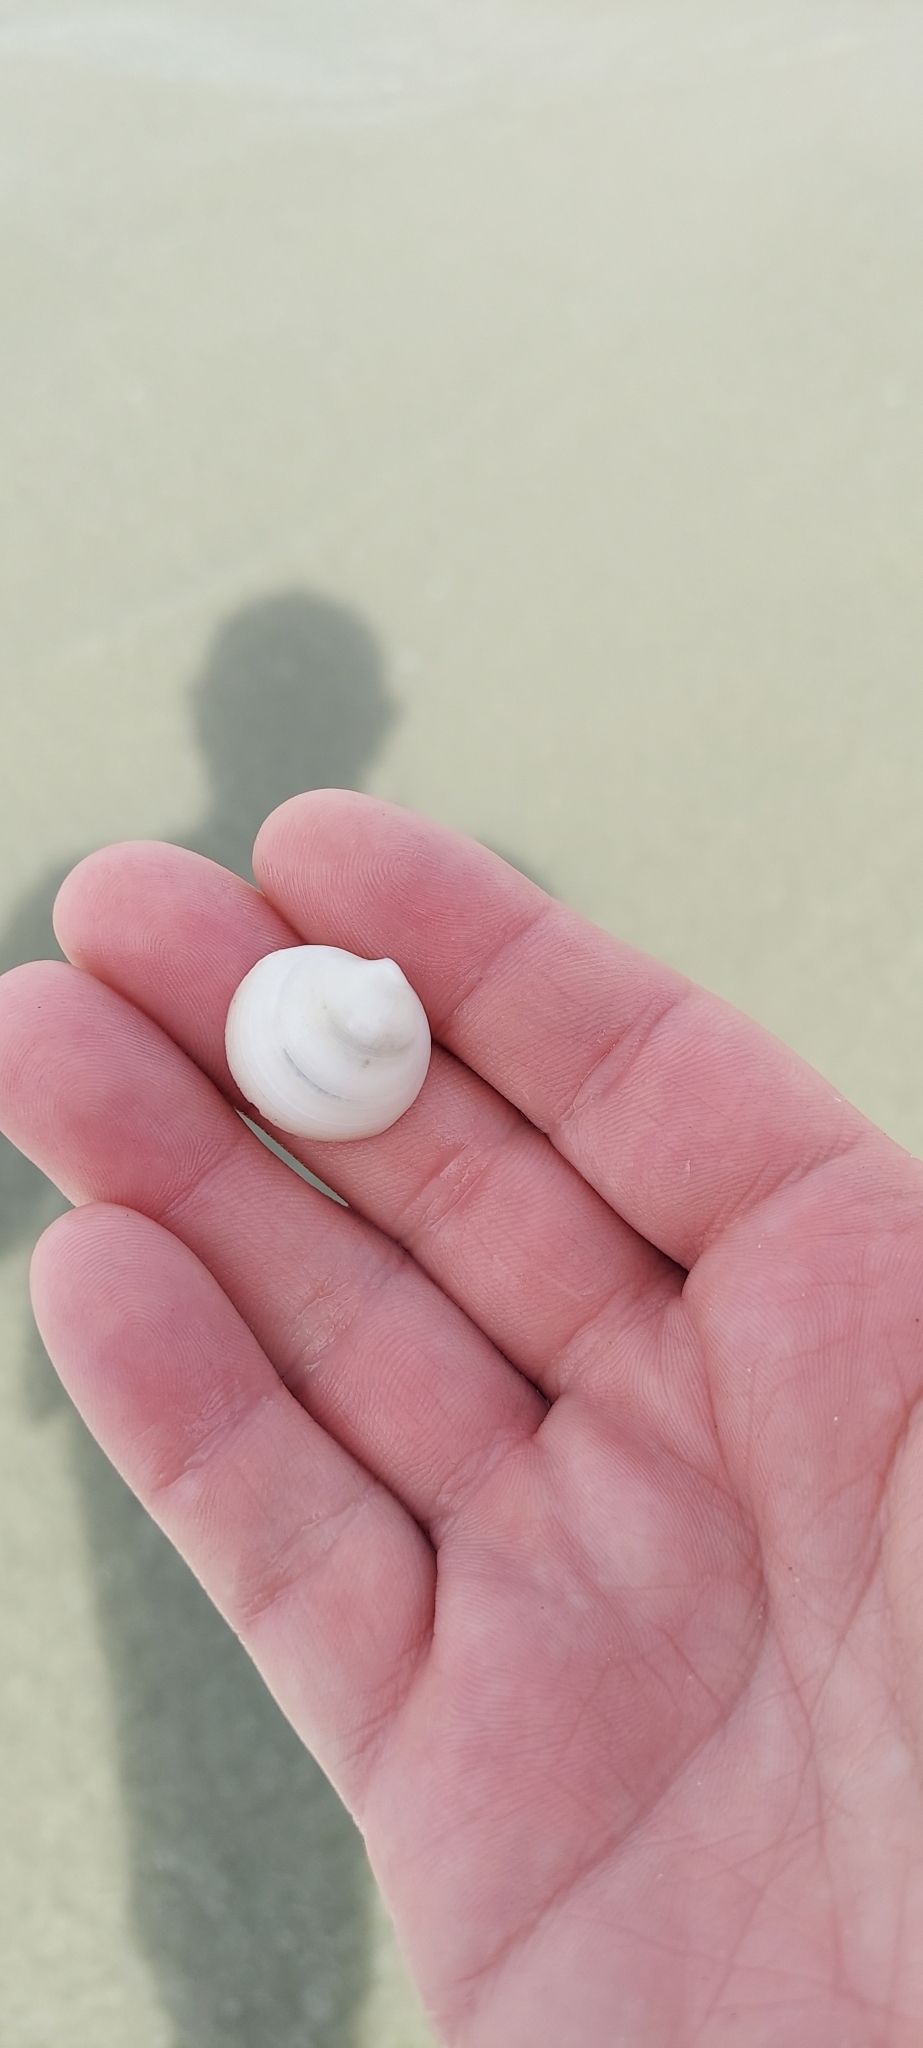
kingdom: Animalia
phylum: Mollusca
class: Bivalvia
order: Lucinida
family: Lucinidae
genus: Callucina
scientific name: Callucina keenae
